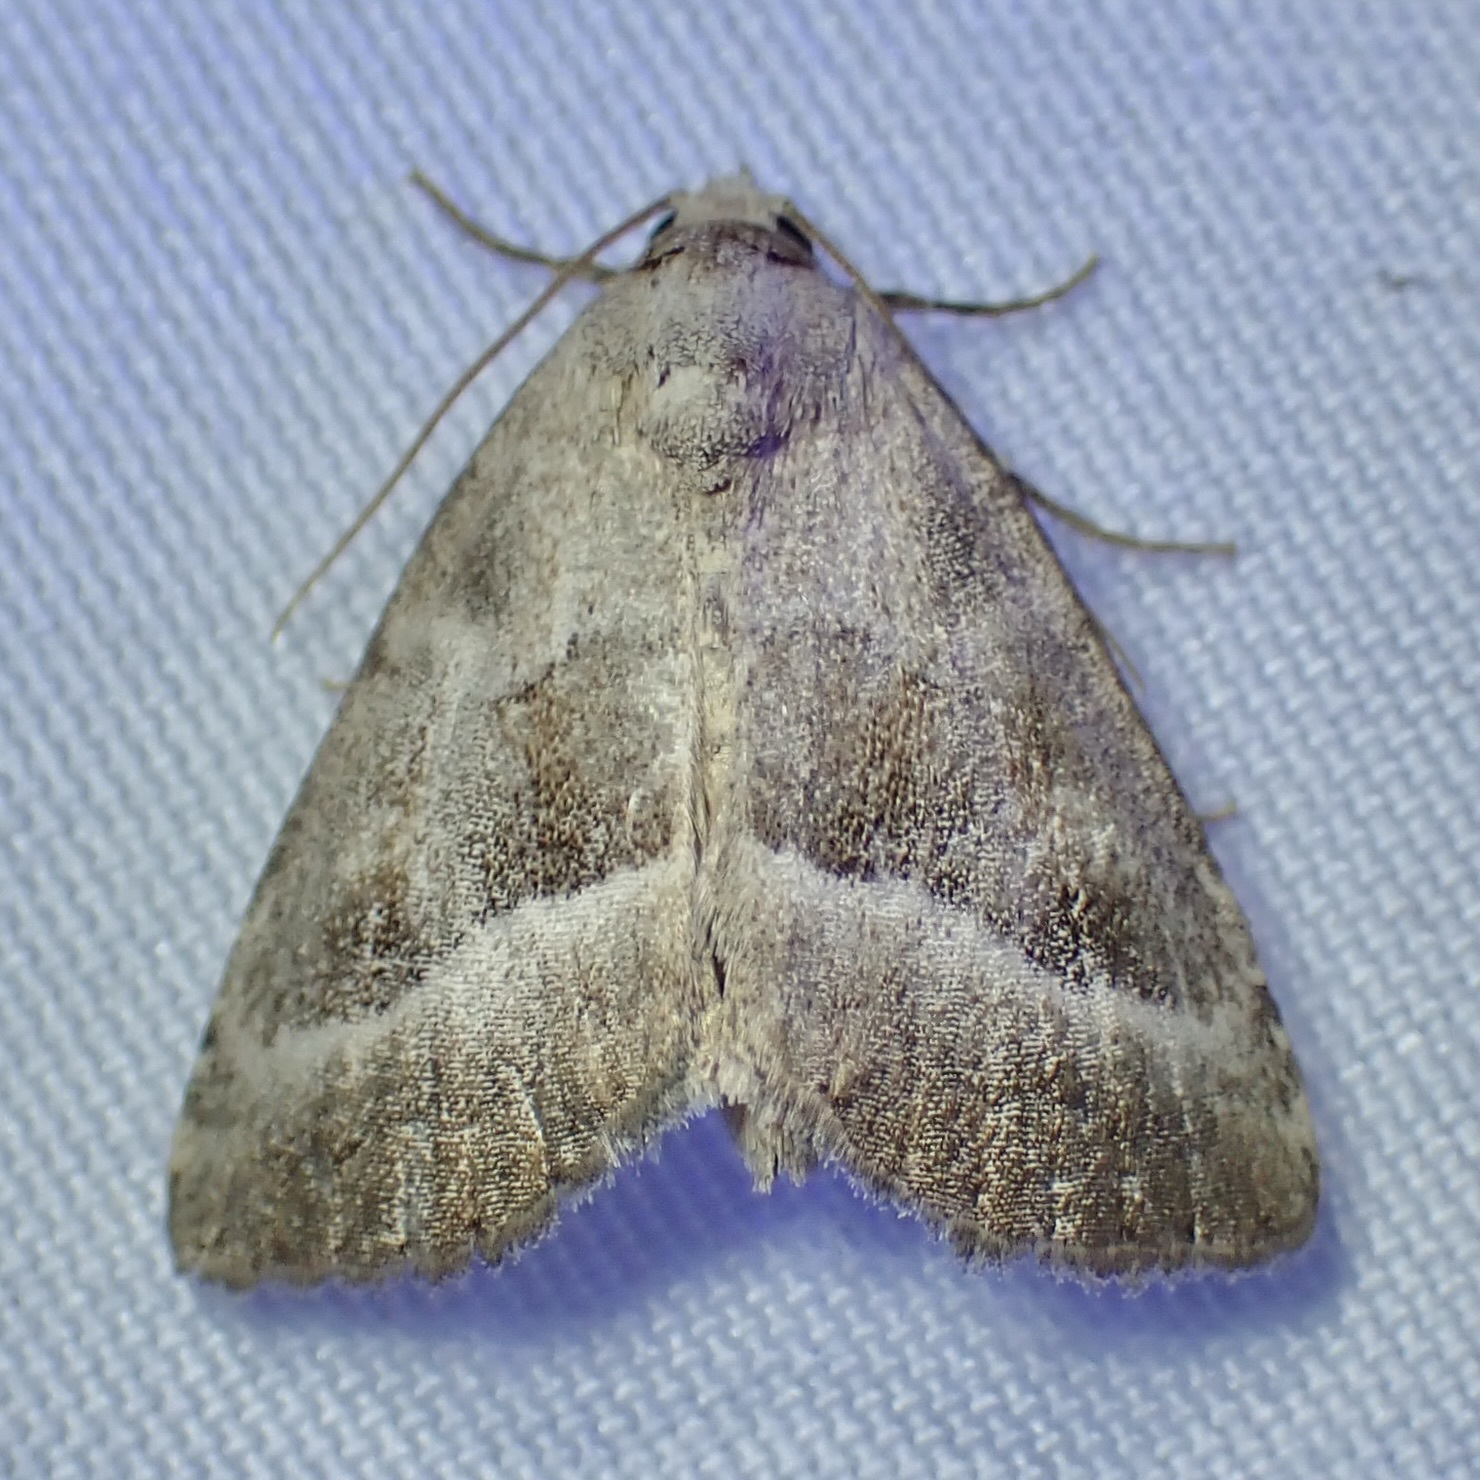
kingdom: Animalia
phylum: Arthropoda
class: Insecta
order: Lepidoptera
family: Noctuidae
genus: Ogdoconta
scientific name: Ogdoconta moreno
